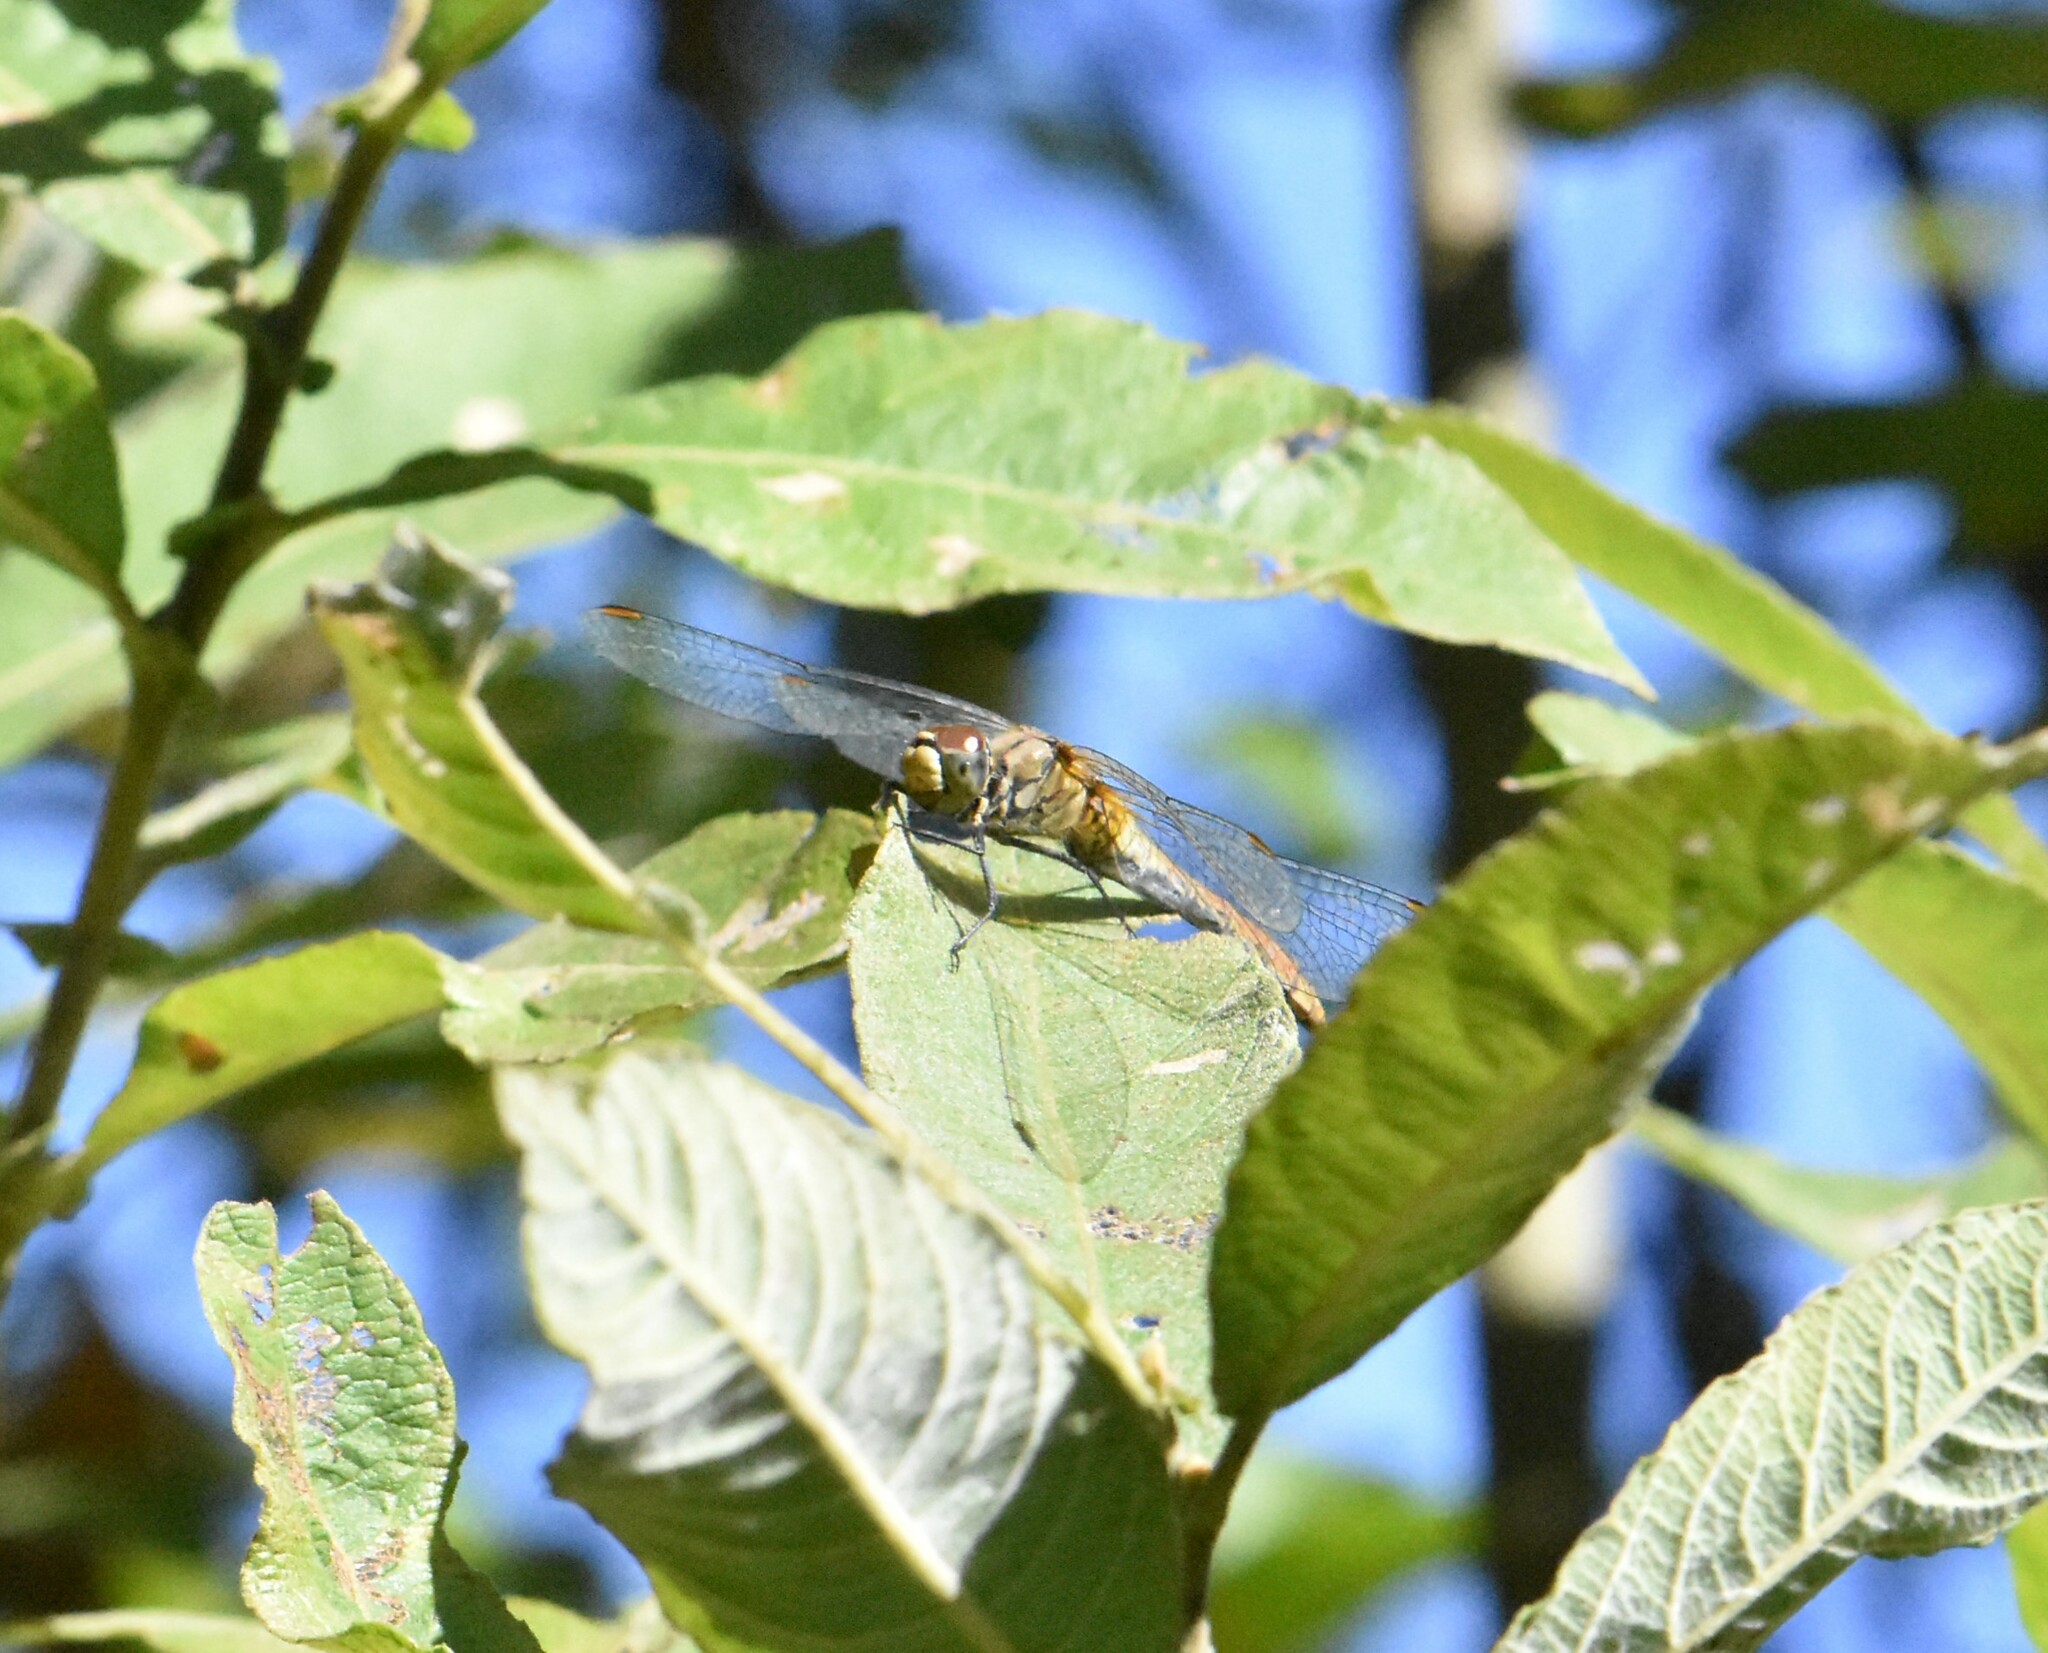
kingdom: Animalia
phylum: Arthropoda
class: Insecta
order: Odonata
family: Libellulidae
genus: Sympetrum
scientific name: Sympetrum sanguineum
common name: Ruddy darter
